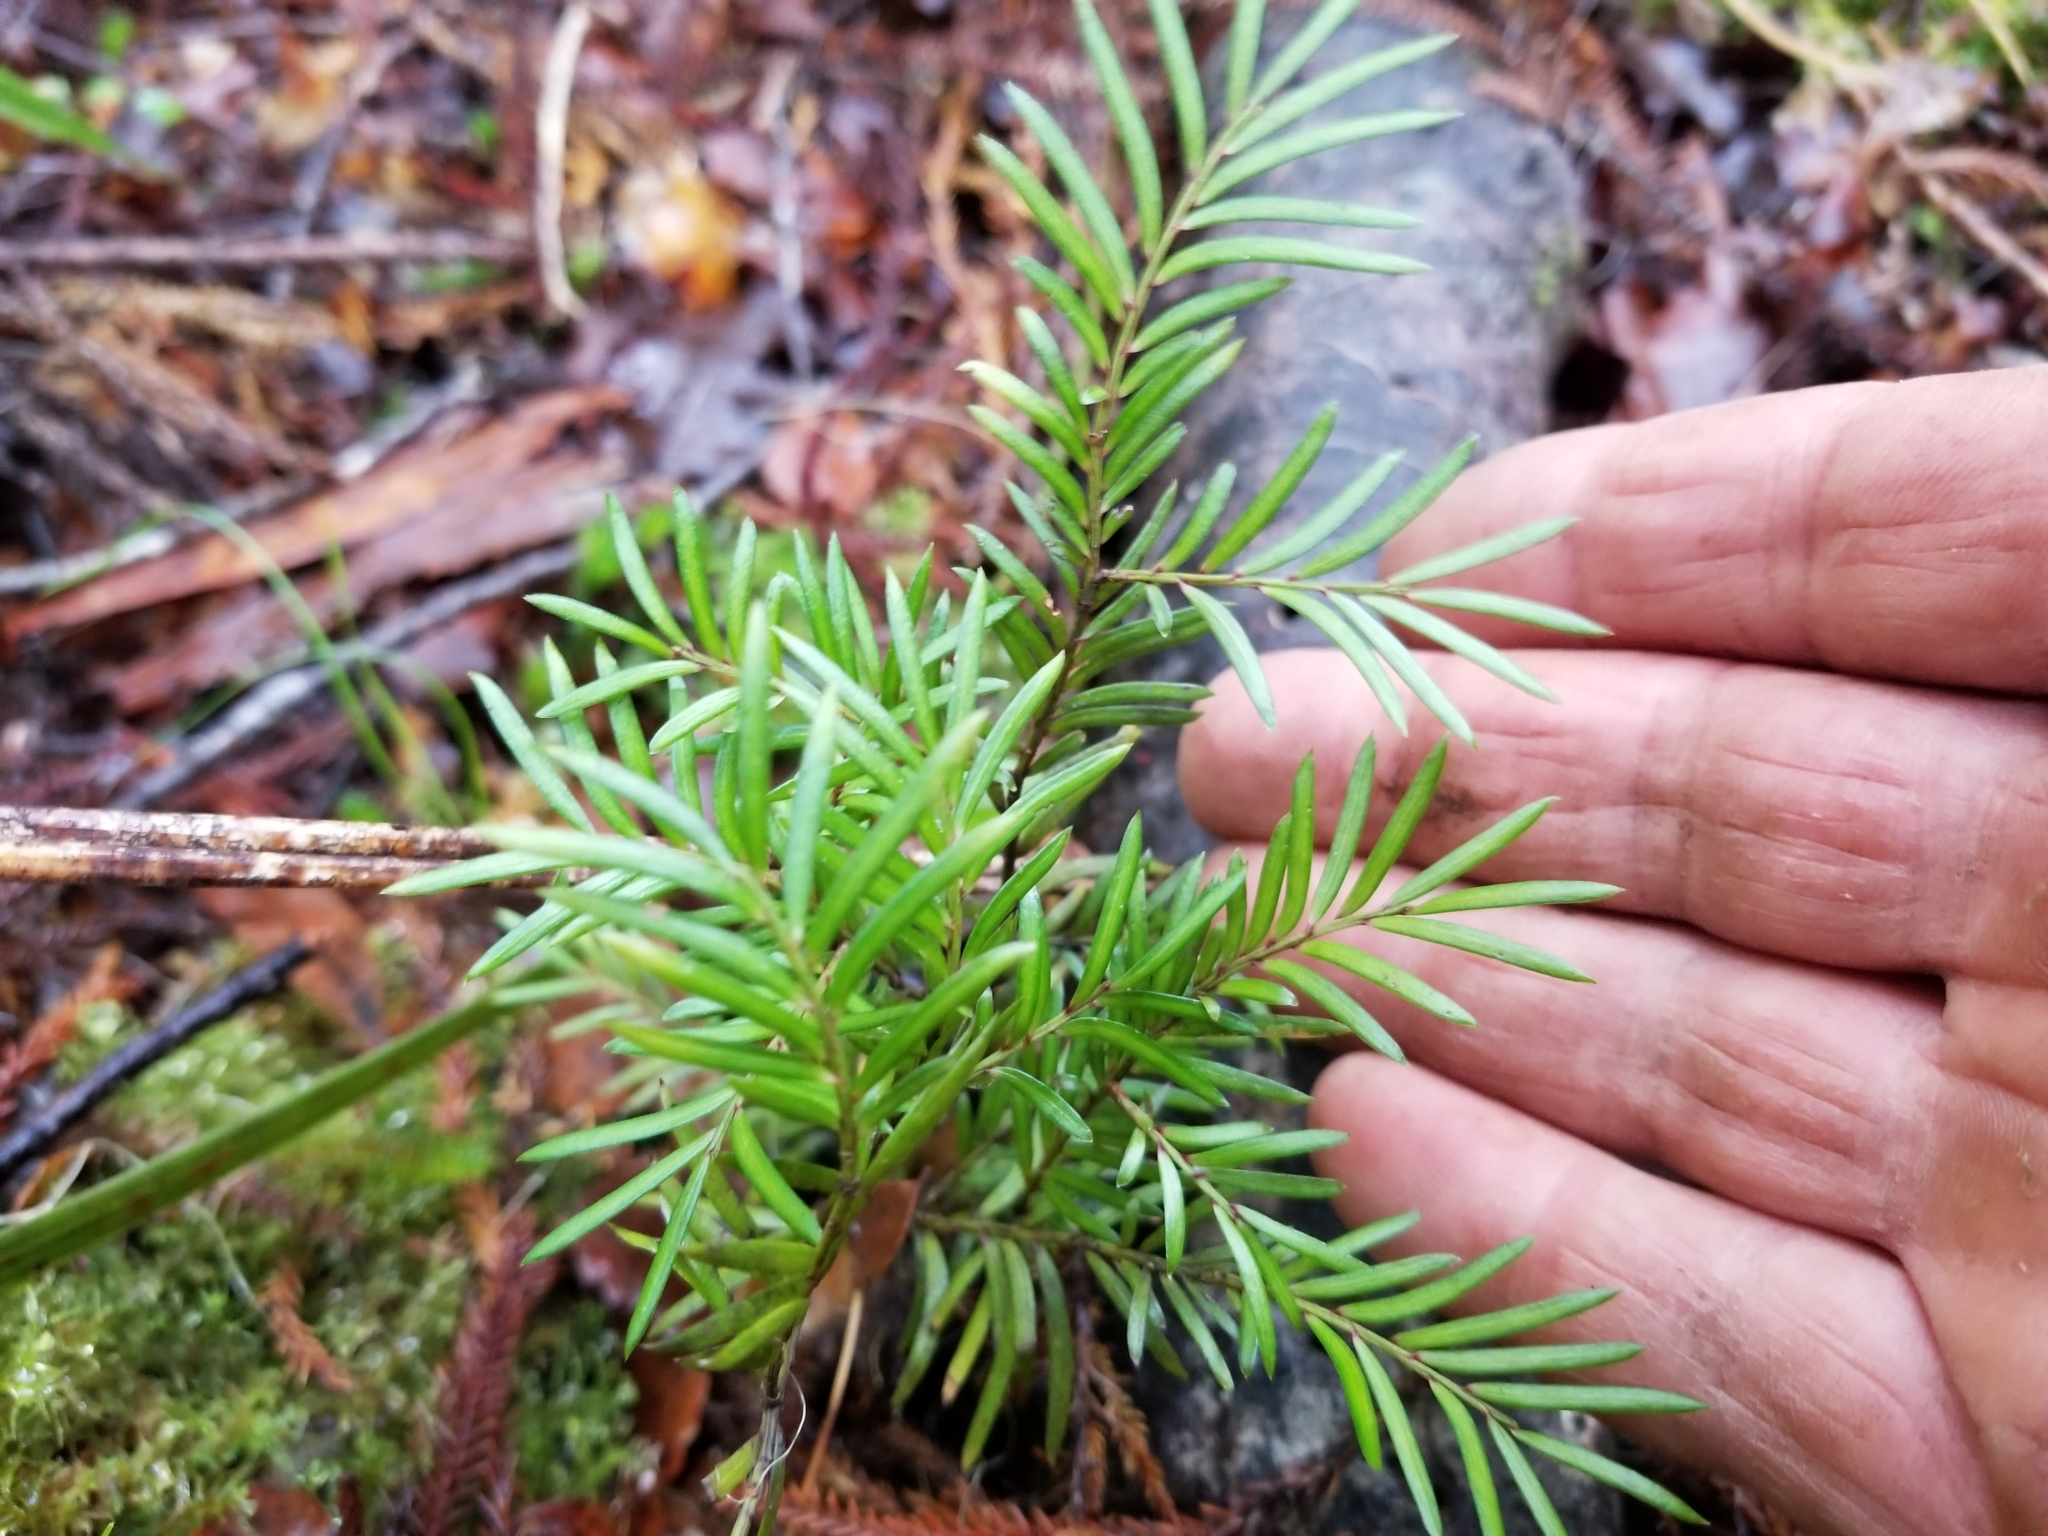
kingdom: Plantae
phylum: Tracheophyta
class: Pinopsida
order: Pinales
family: Podocarpaceae
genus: Prumnopitys
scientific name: Prumnopitys ferruginea
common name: Brown pine
